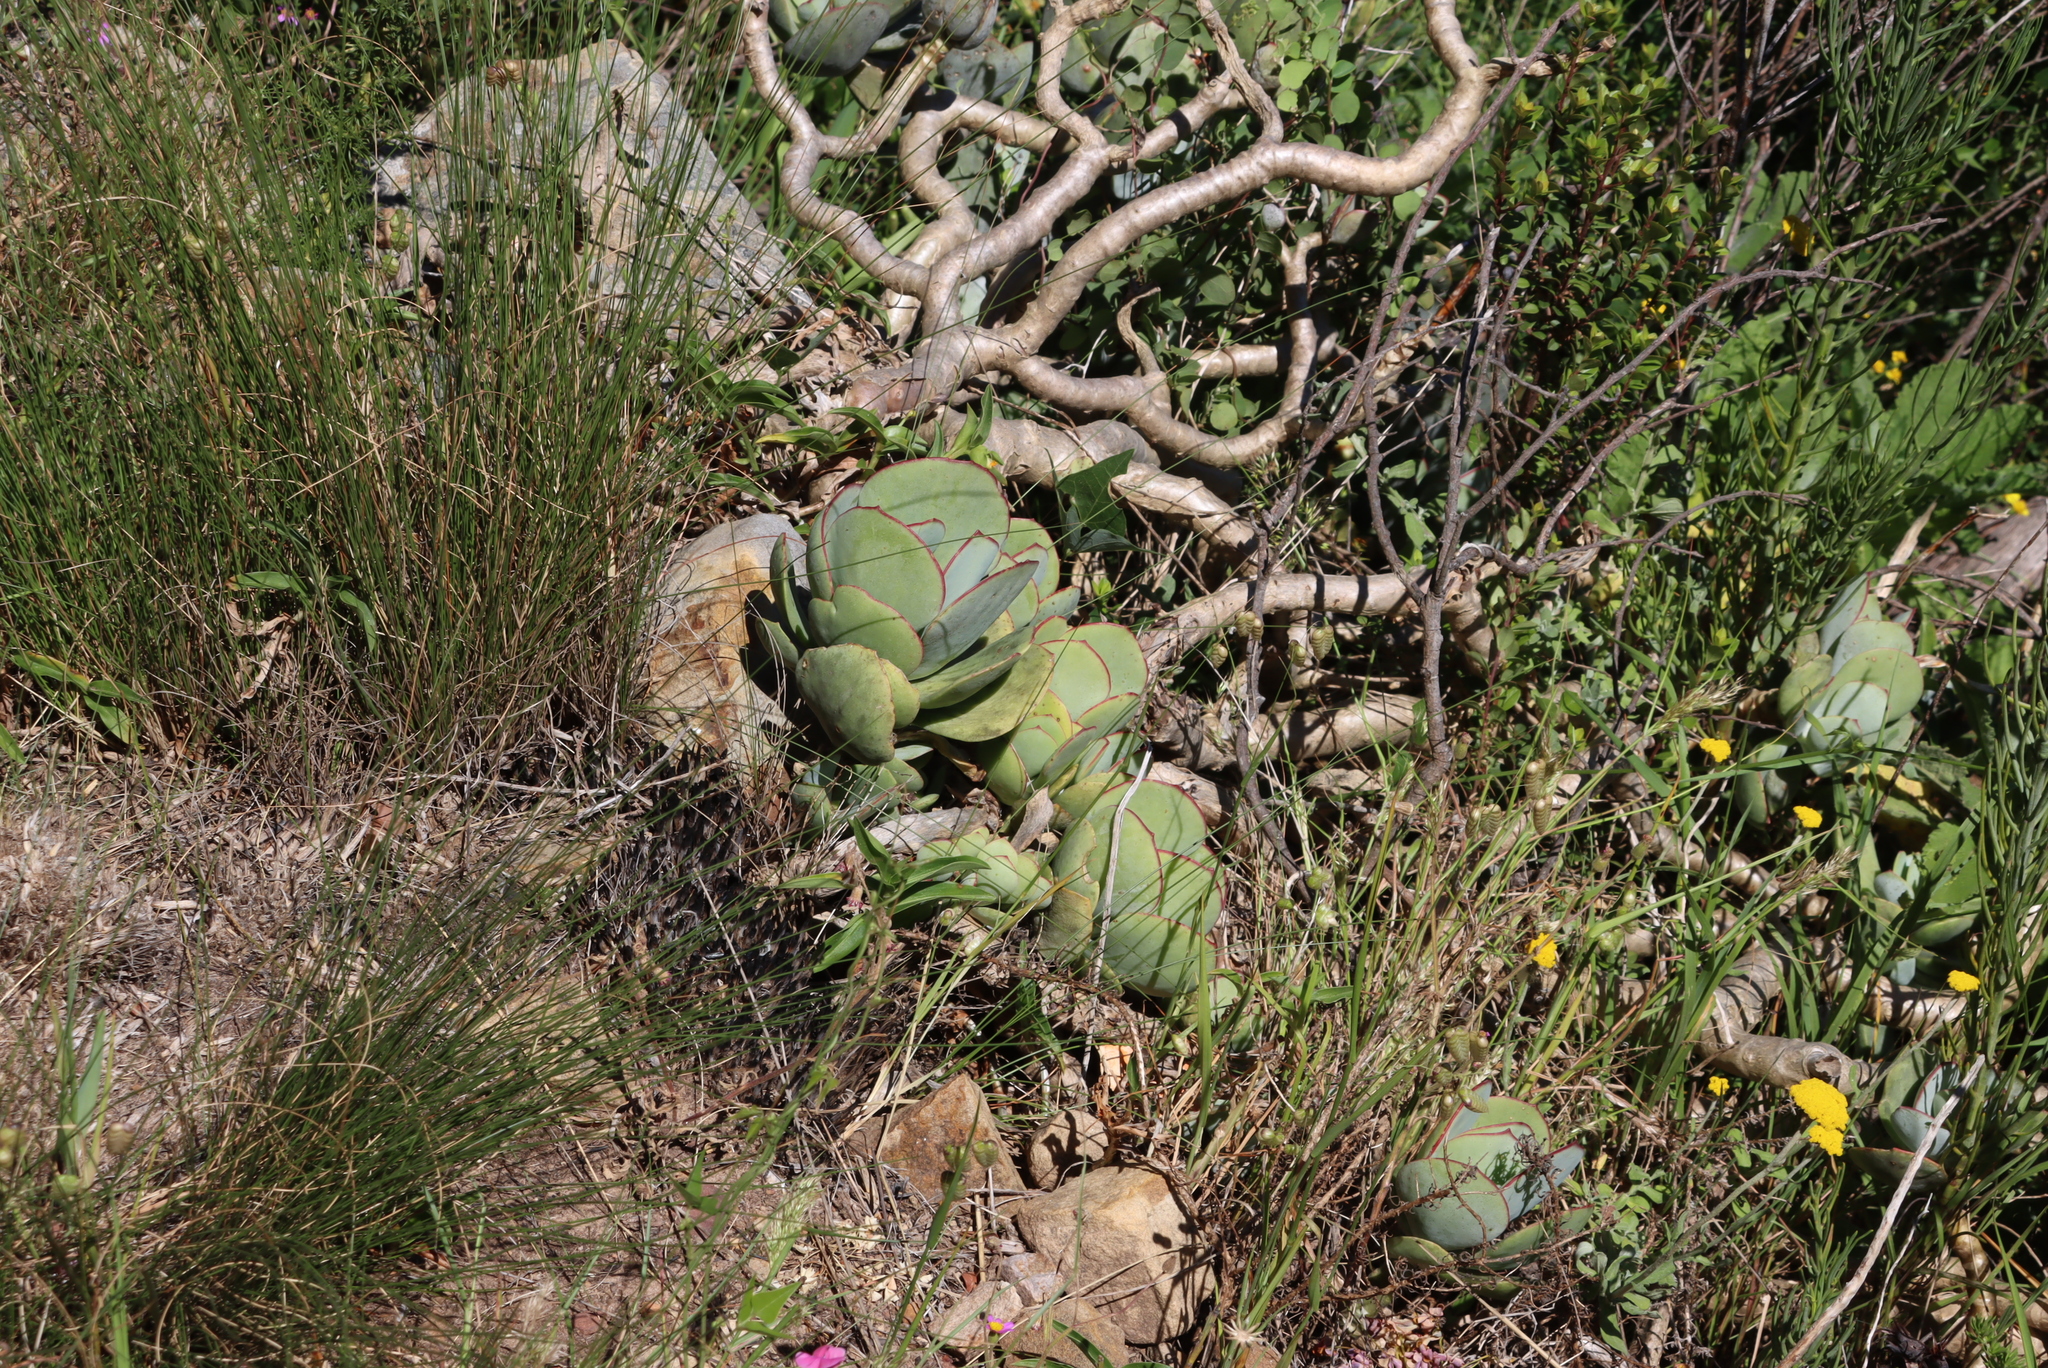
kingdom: Plantae
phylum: Tracheophyta
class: Magnoliopsida
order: Saxifragales
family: Crassulaceae
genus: Cotyledon
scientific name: Cotyledon orbiculata
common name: Pig's ear
